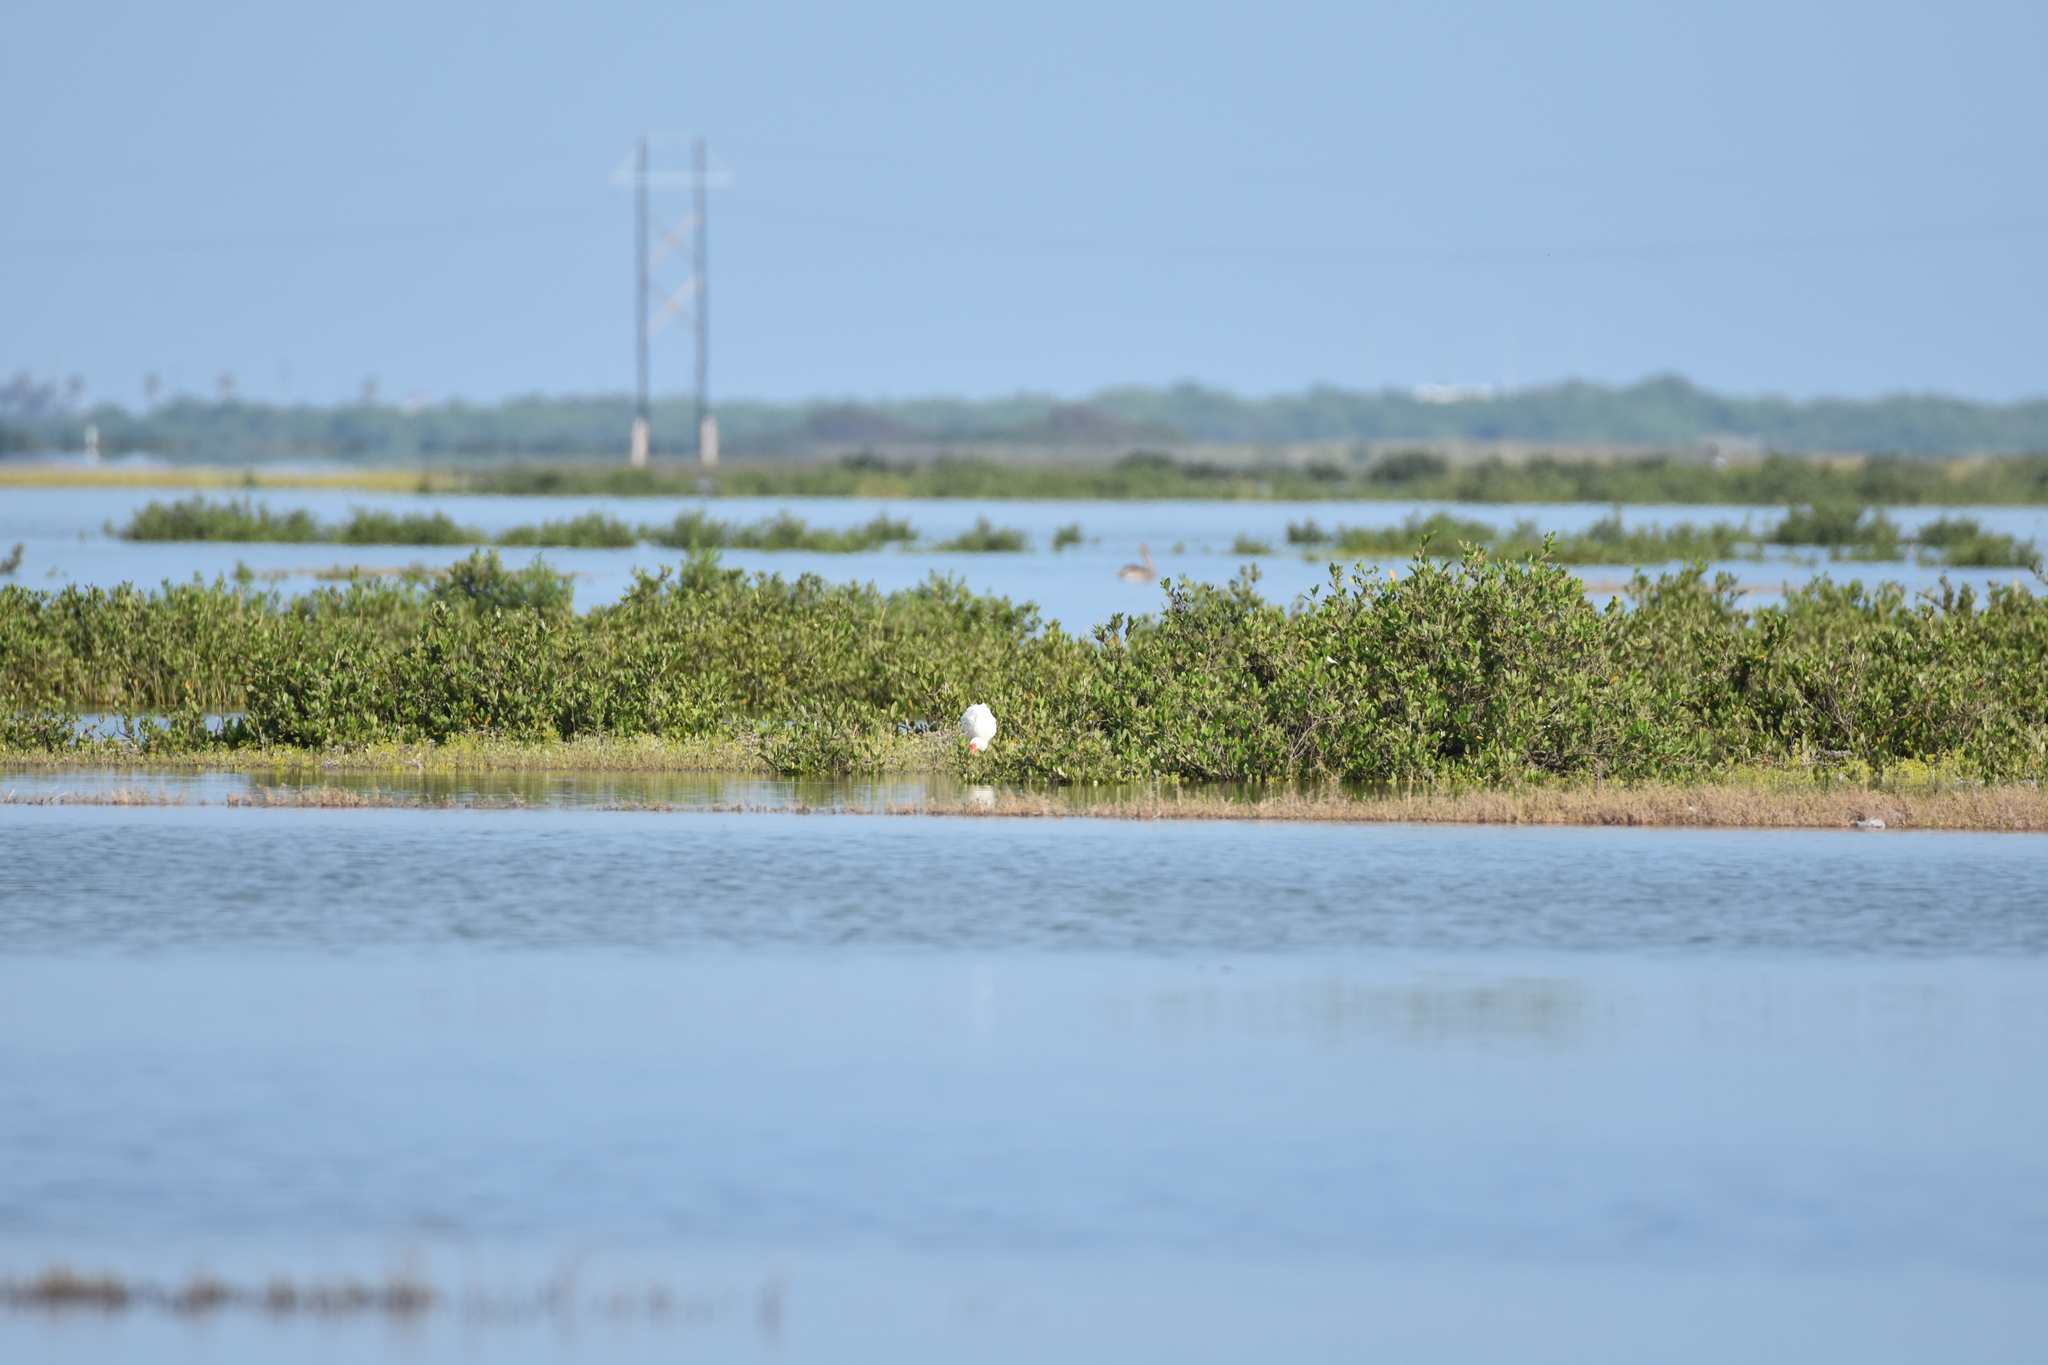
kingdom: Animalia
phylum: Chordata
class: Aves
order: Pelecaniformes
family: Threskiornithidae
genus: Eudocimus
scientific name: Eudocimus albus
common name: White ibis
